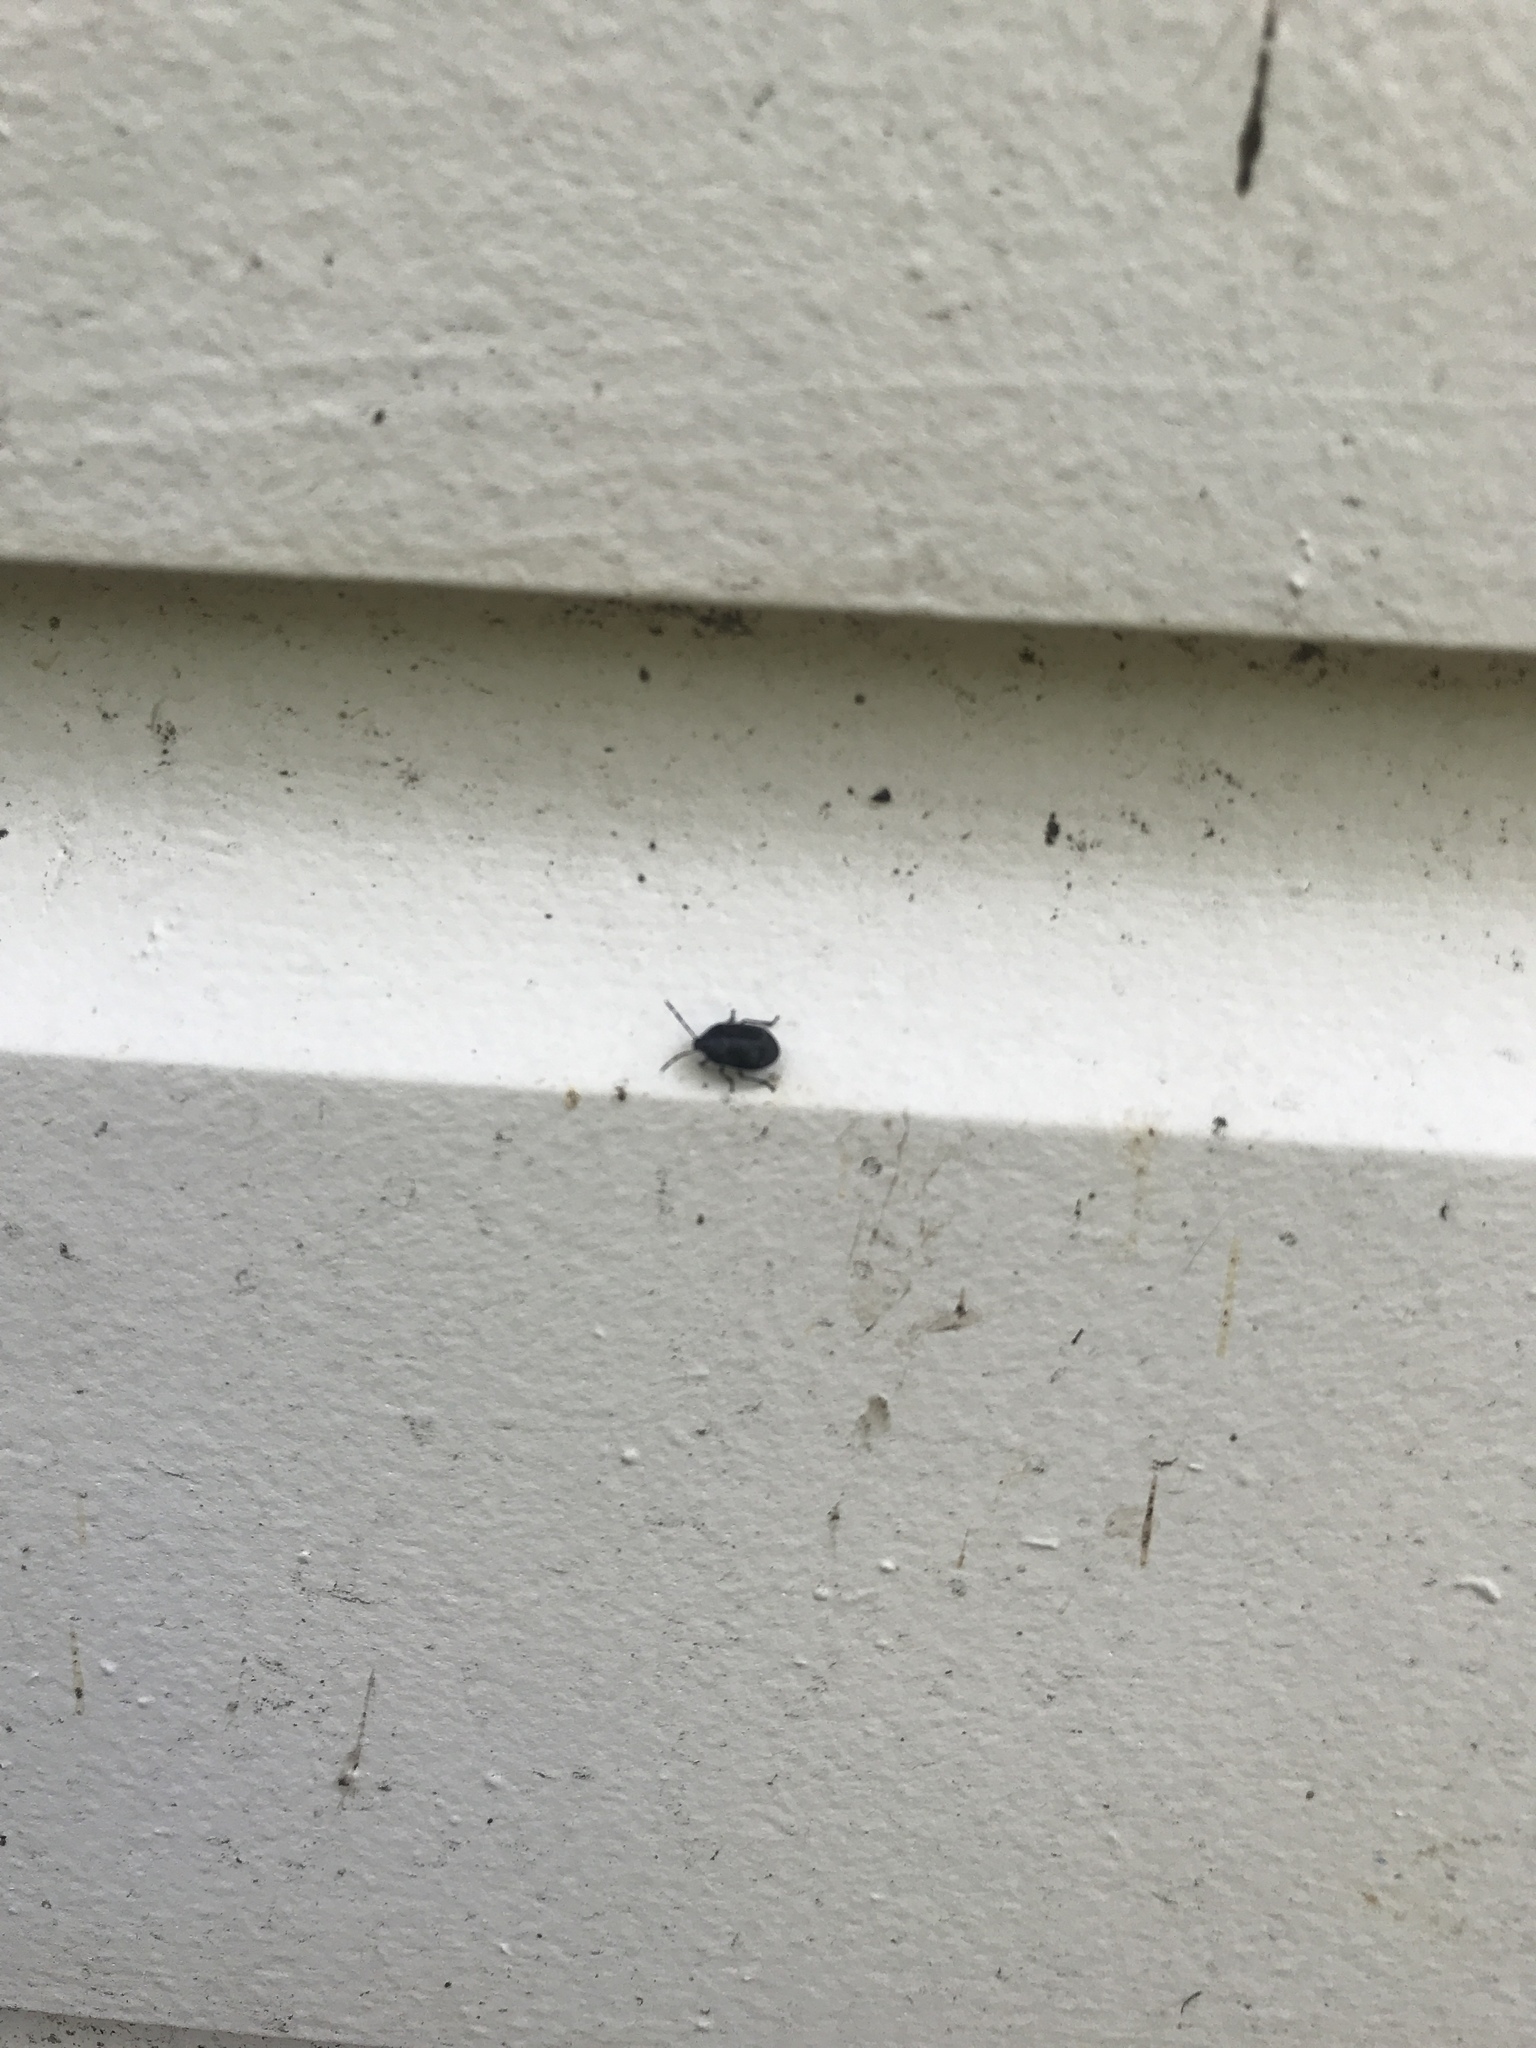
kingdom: Animalia
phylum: Arthropoda
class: Insecta
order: Hemiptera
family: Cydnidae
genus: Sehirus
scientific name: Sehirus cinctus
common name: White-margined burrower bug
